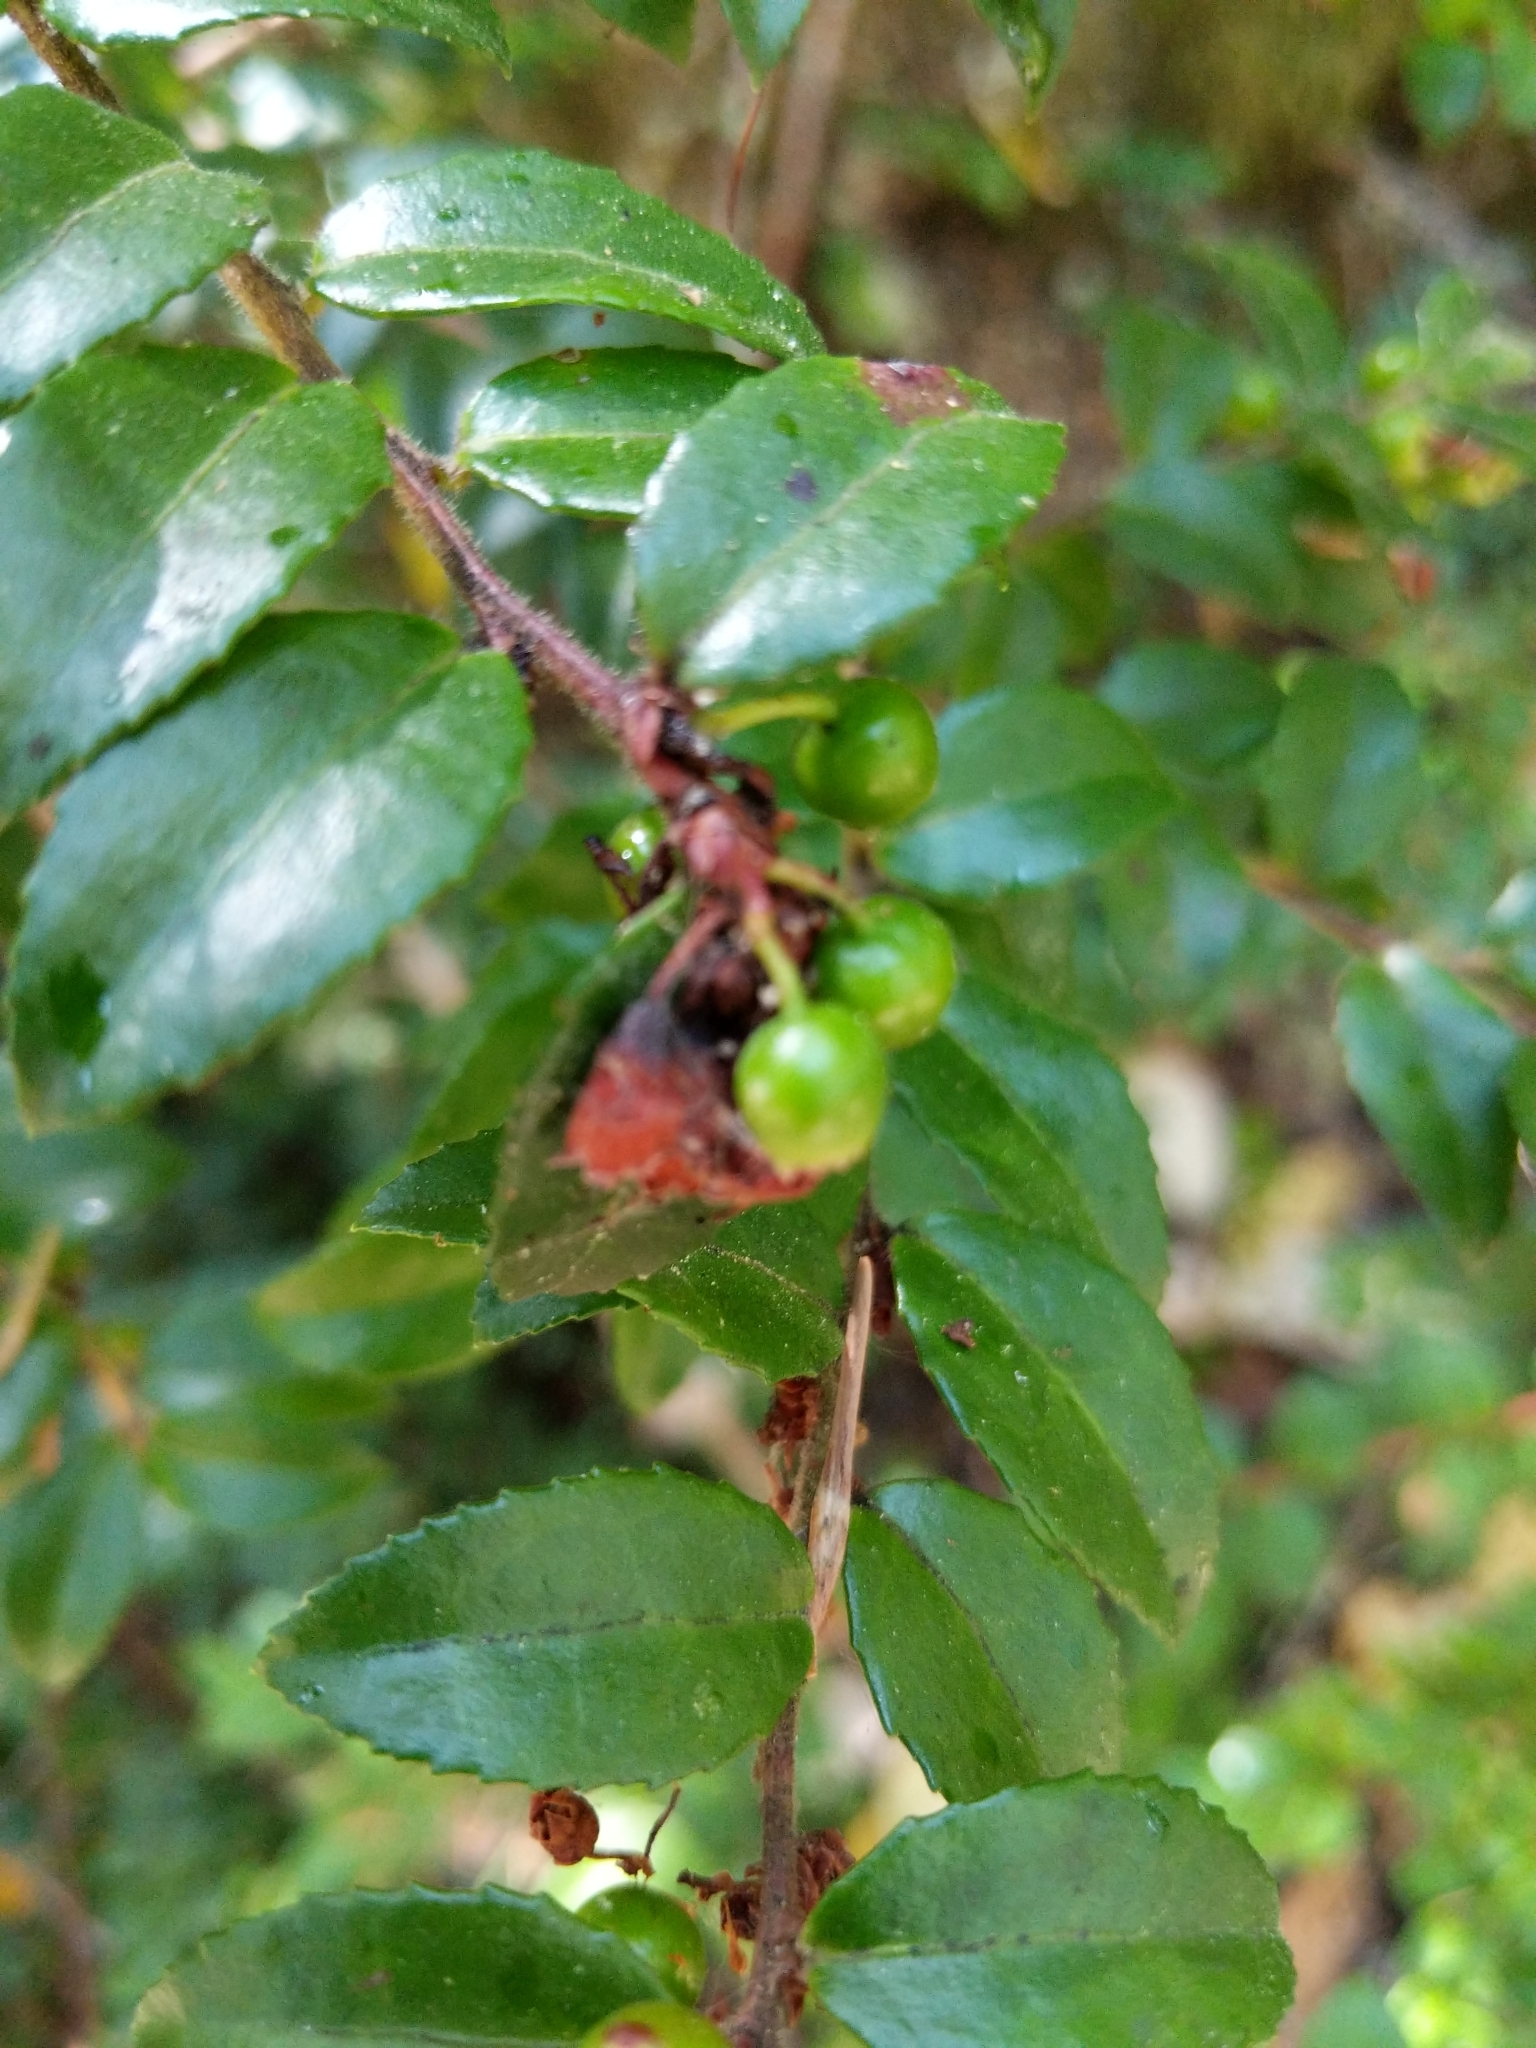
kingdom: Plantae
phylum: Tracheophyta
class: Magnoliopsida
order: Ericales
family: Ericaceae
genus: Vaccinium
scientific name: Vaccinium ovatum
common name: California-huckleberry
